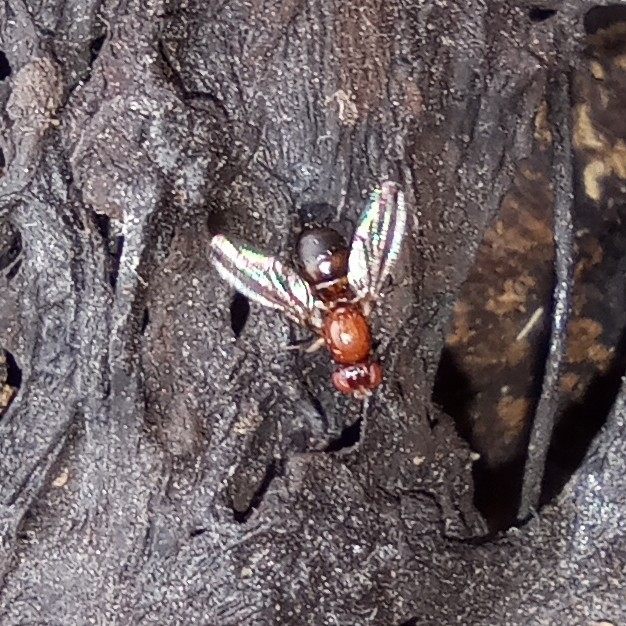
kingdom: Animalia
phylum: Arthropoda
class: Insecta
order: Diptera
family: Piophilidae
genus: Mycetaulus
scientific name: Mycetaulus bipunctatus
